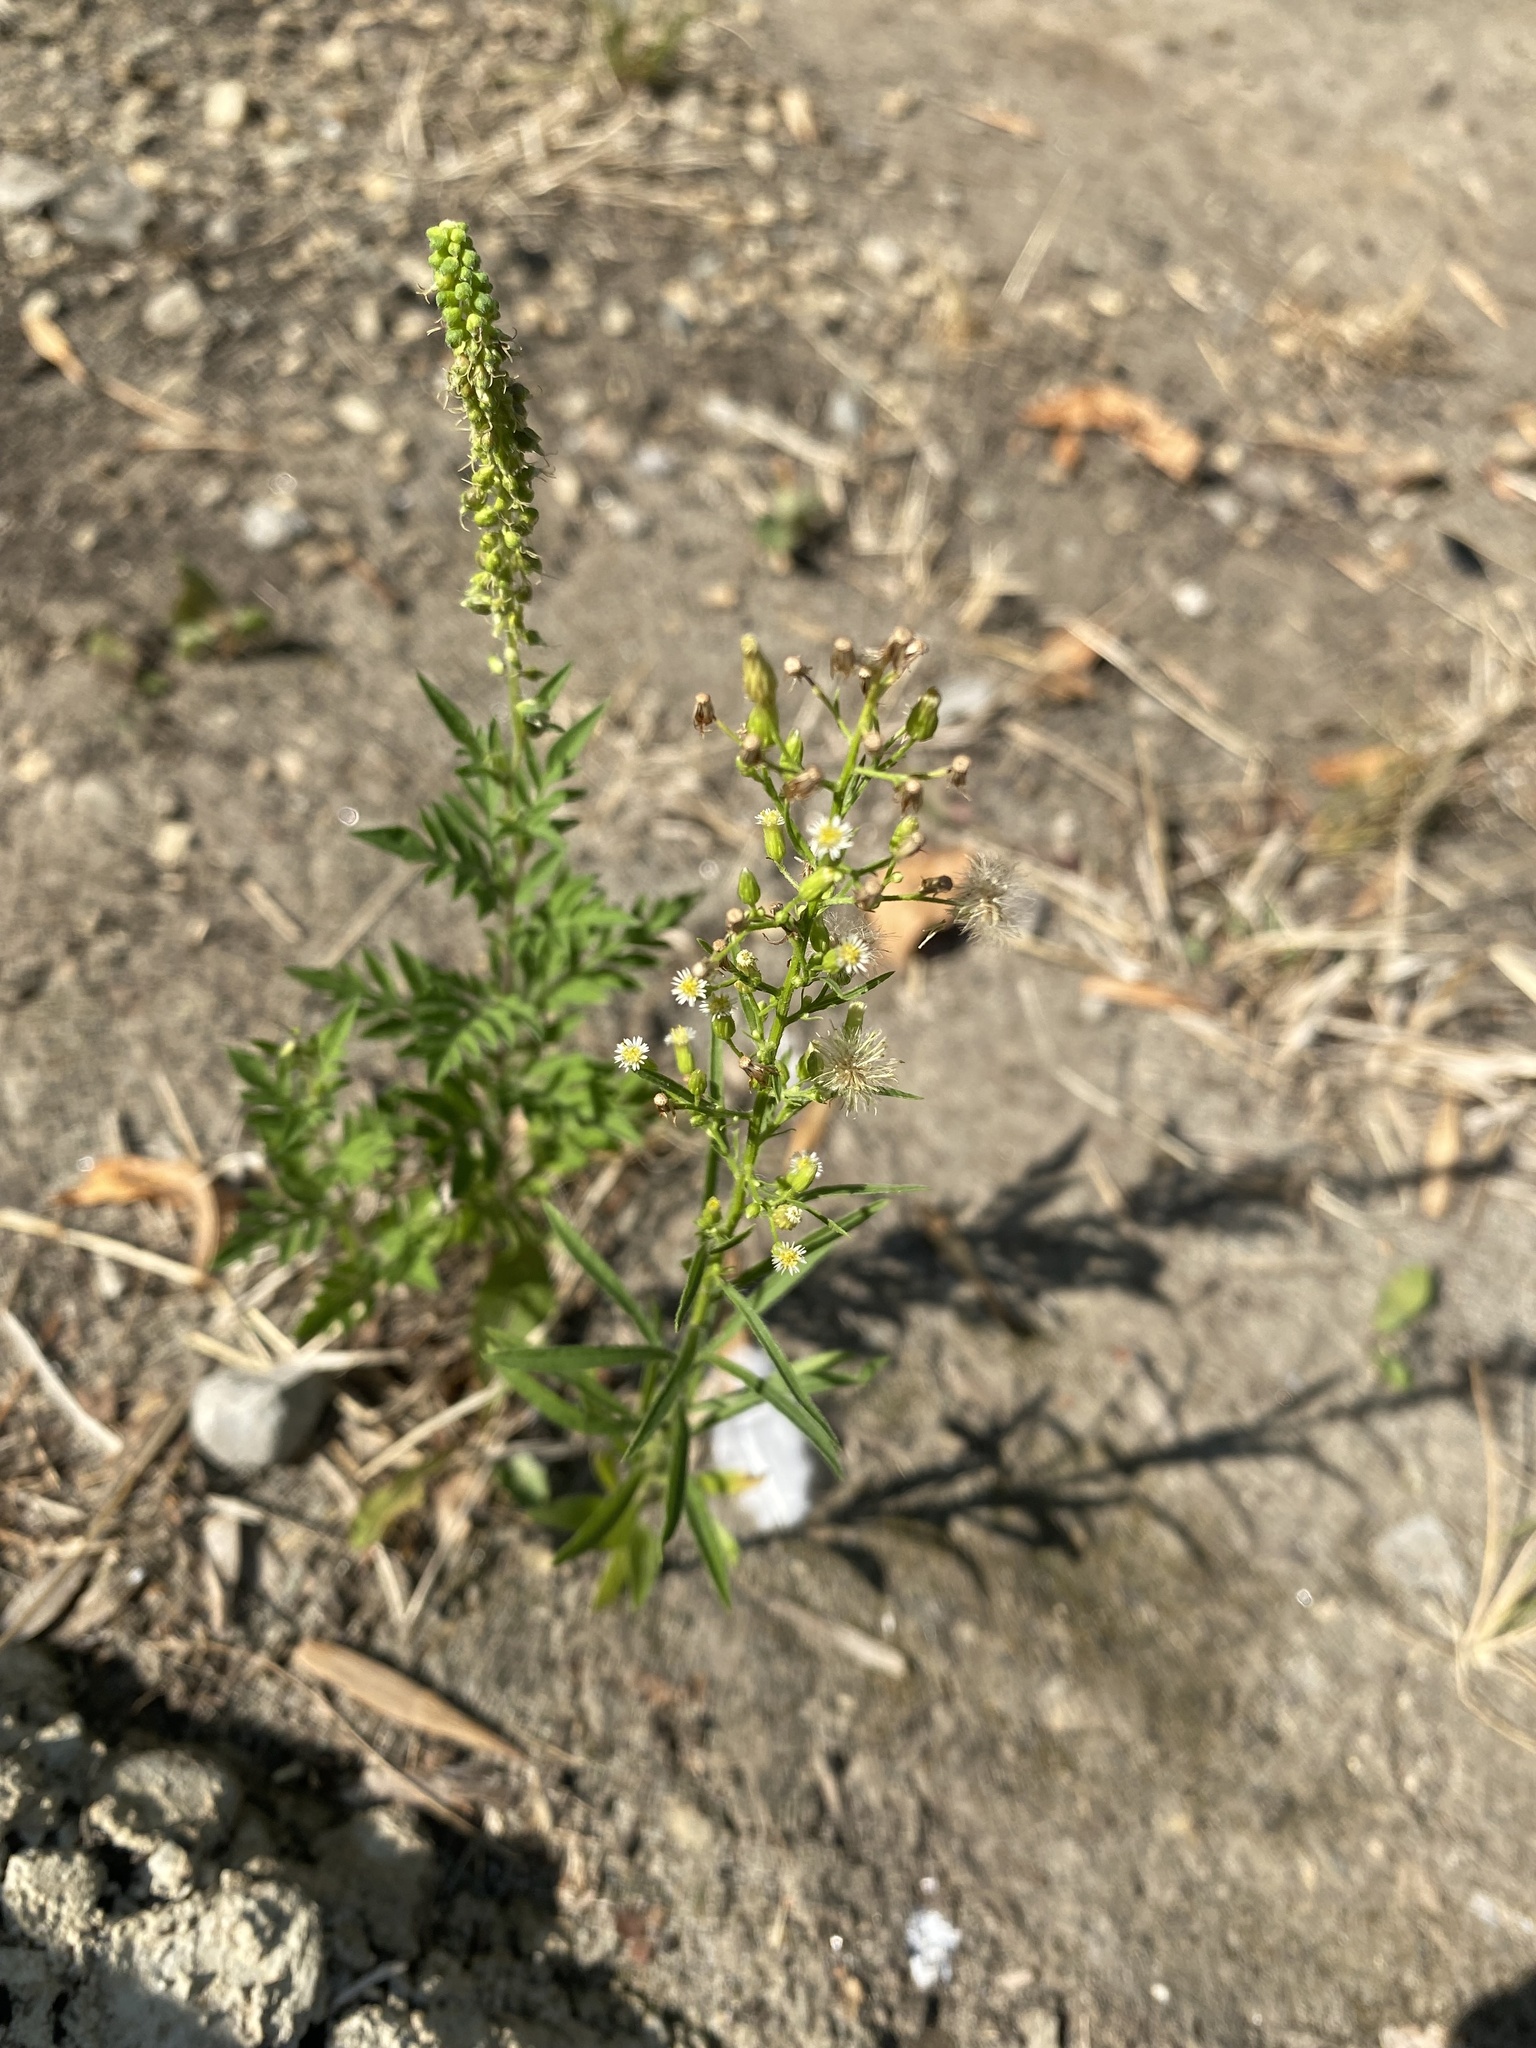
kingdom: Plantae
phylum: Tracheophyta
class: Magnoliopsida
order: Asterales
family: Asteraceae
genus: Erigeron
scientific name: Erigeron canadensis
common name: Canadian fleabane
